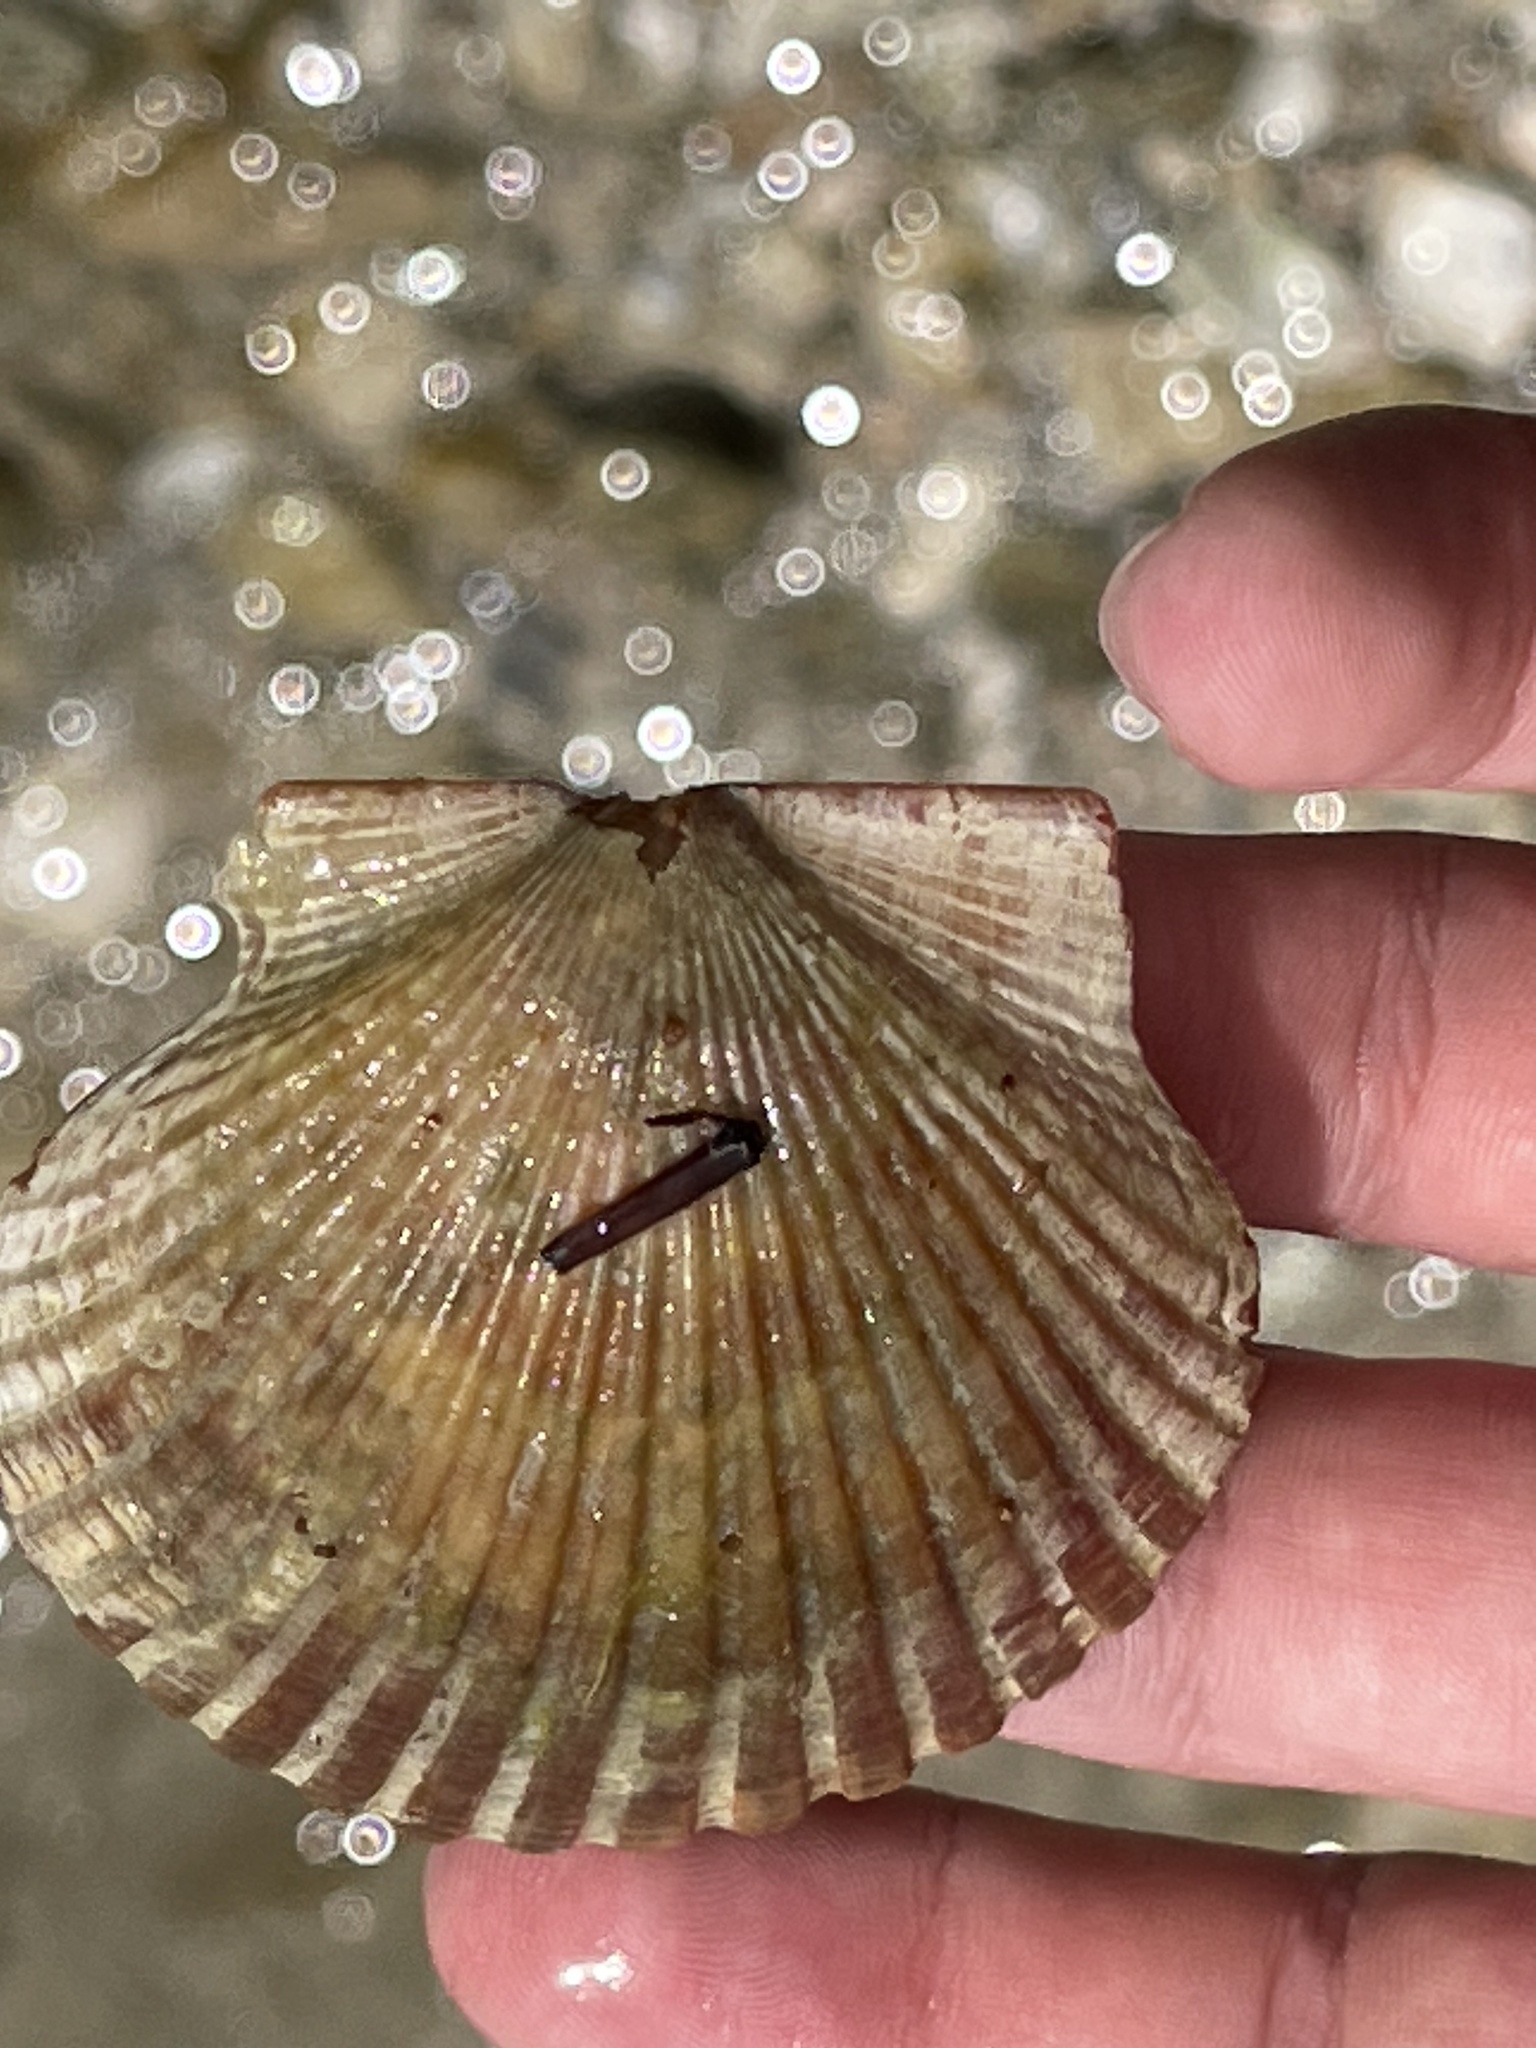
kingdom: Animalia
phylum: Mollusca
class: Bivalvia
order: Pectinida
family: Pectinidae
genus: Argopecten
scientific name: Argopecten irradians
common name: Atlantic bay scallop
